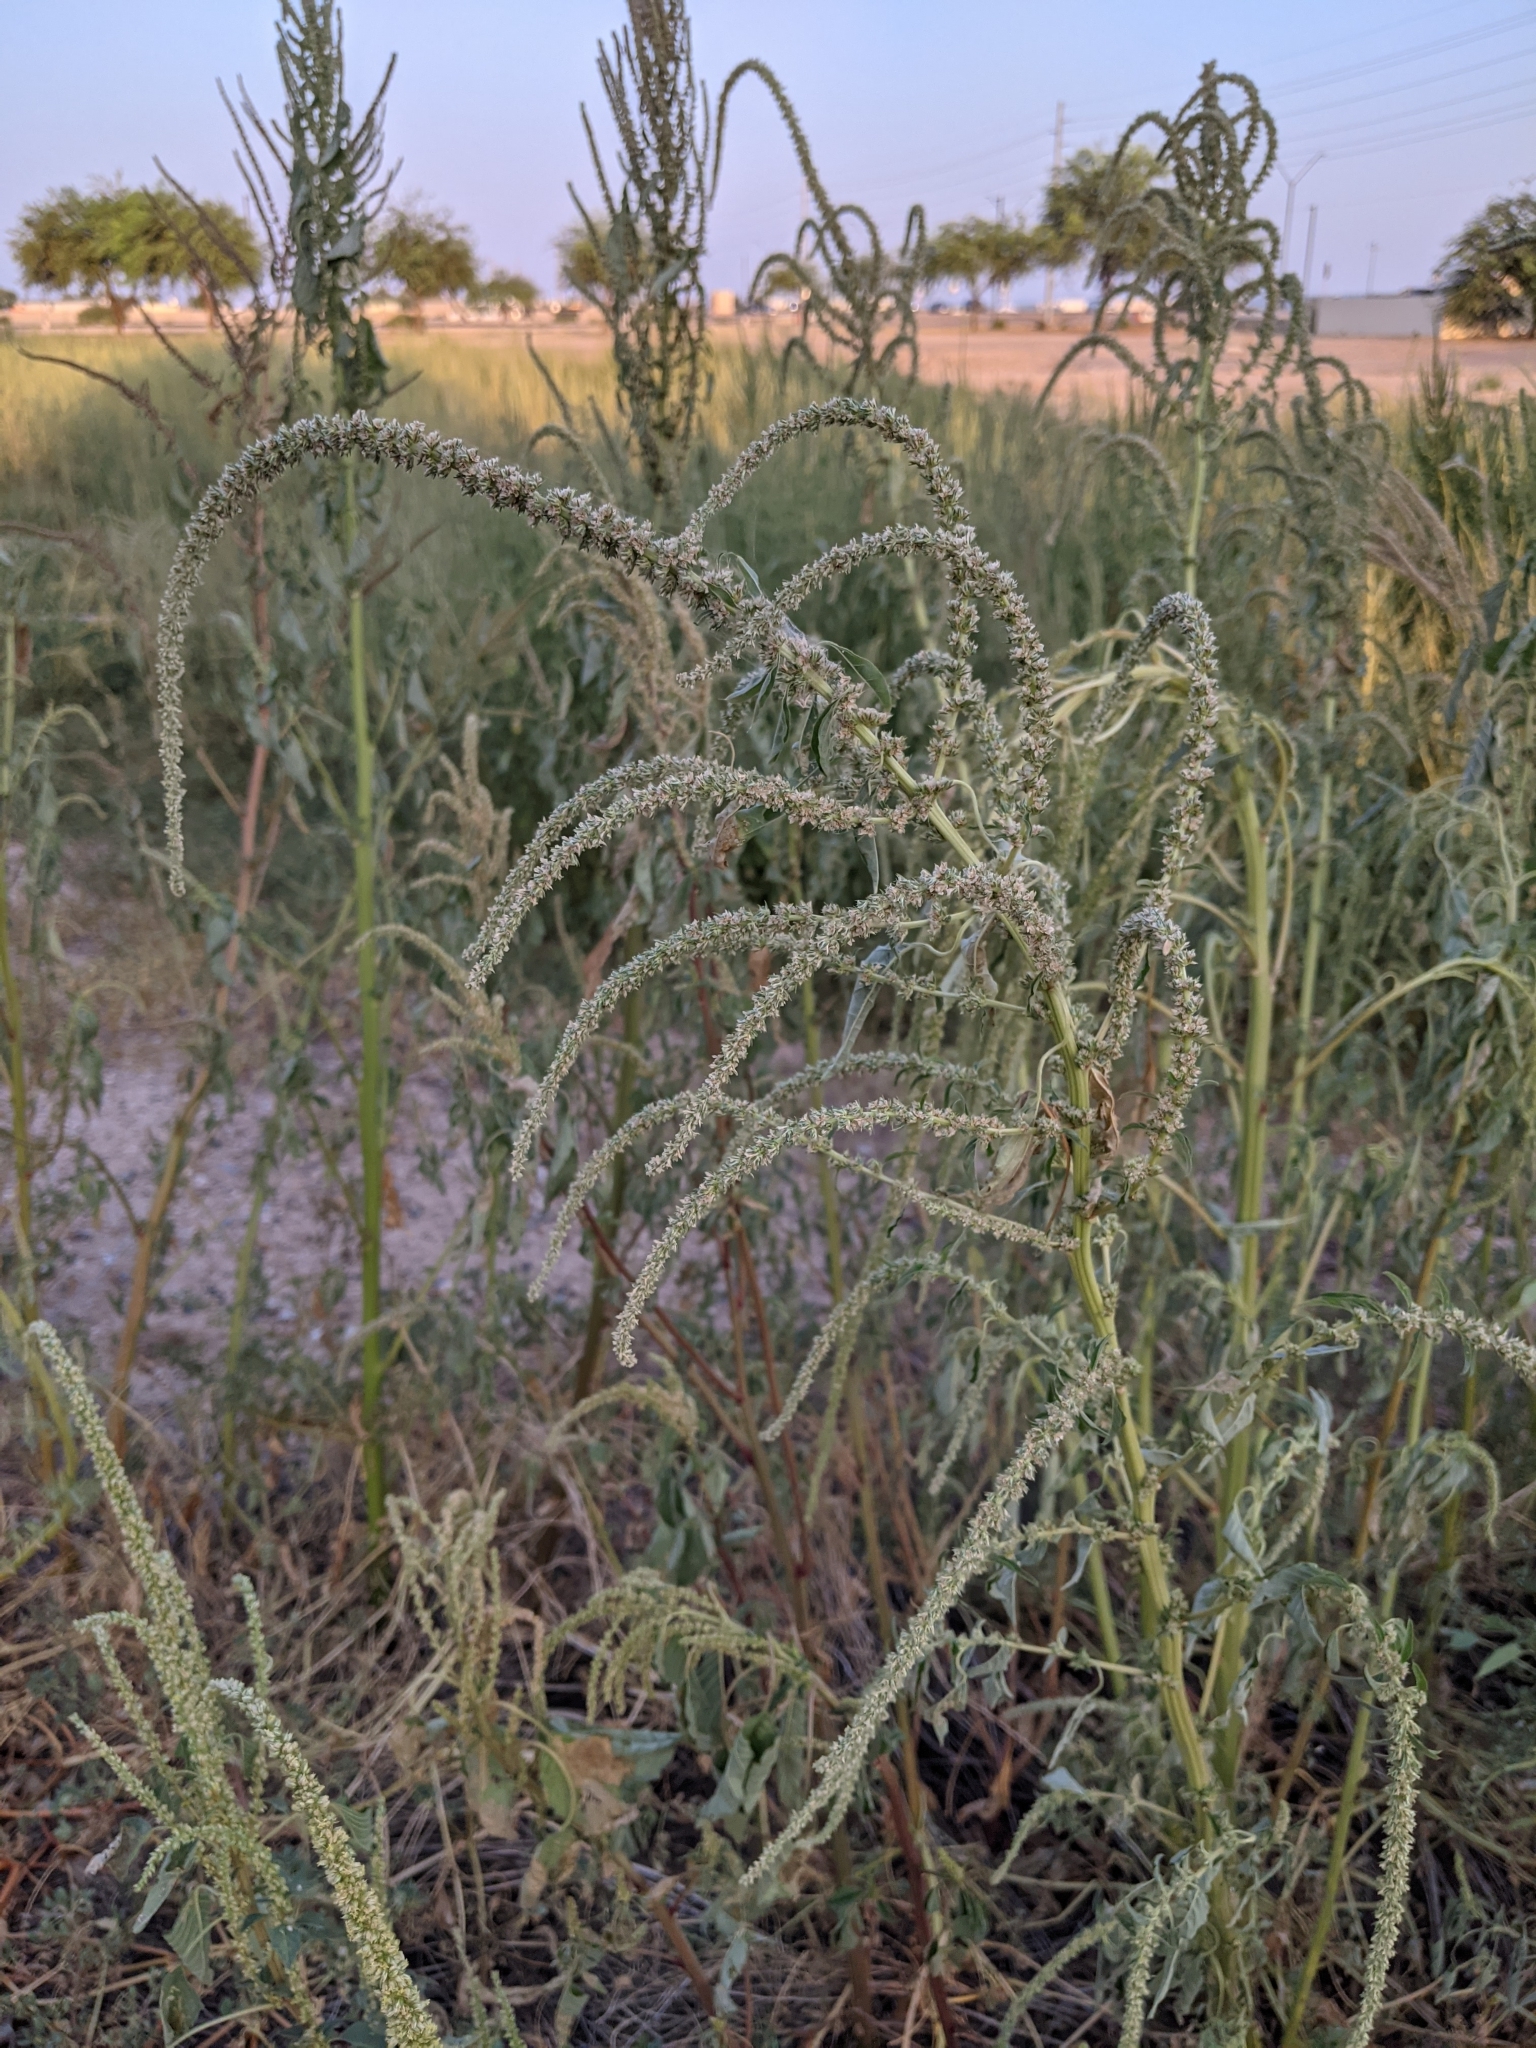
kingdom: Plantae
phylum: Tracheophyta
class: Magnoliopsida
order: Caryophyllales
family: Amaranthaceae
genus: Amaranthus
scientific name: Amaranthus palmeri
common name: Dioecious amaranth
